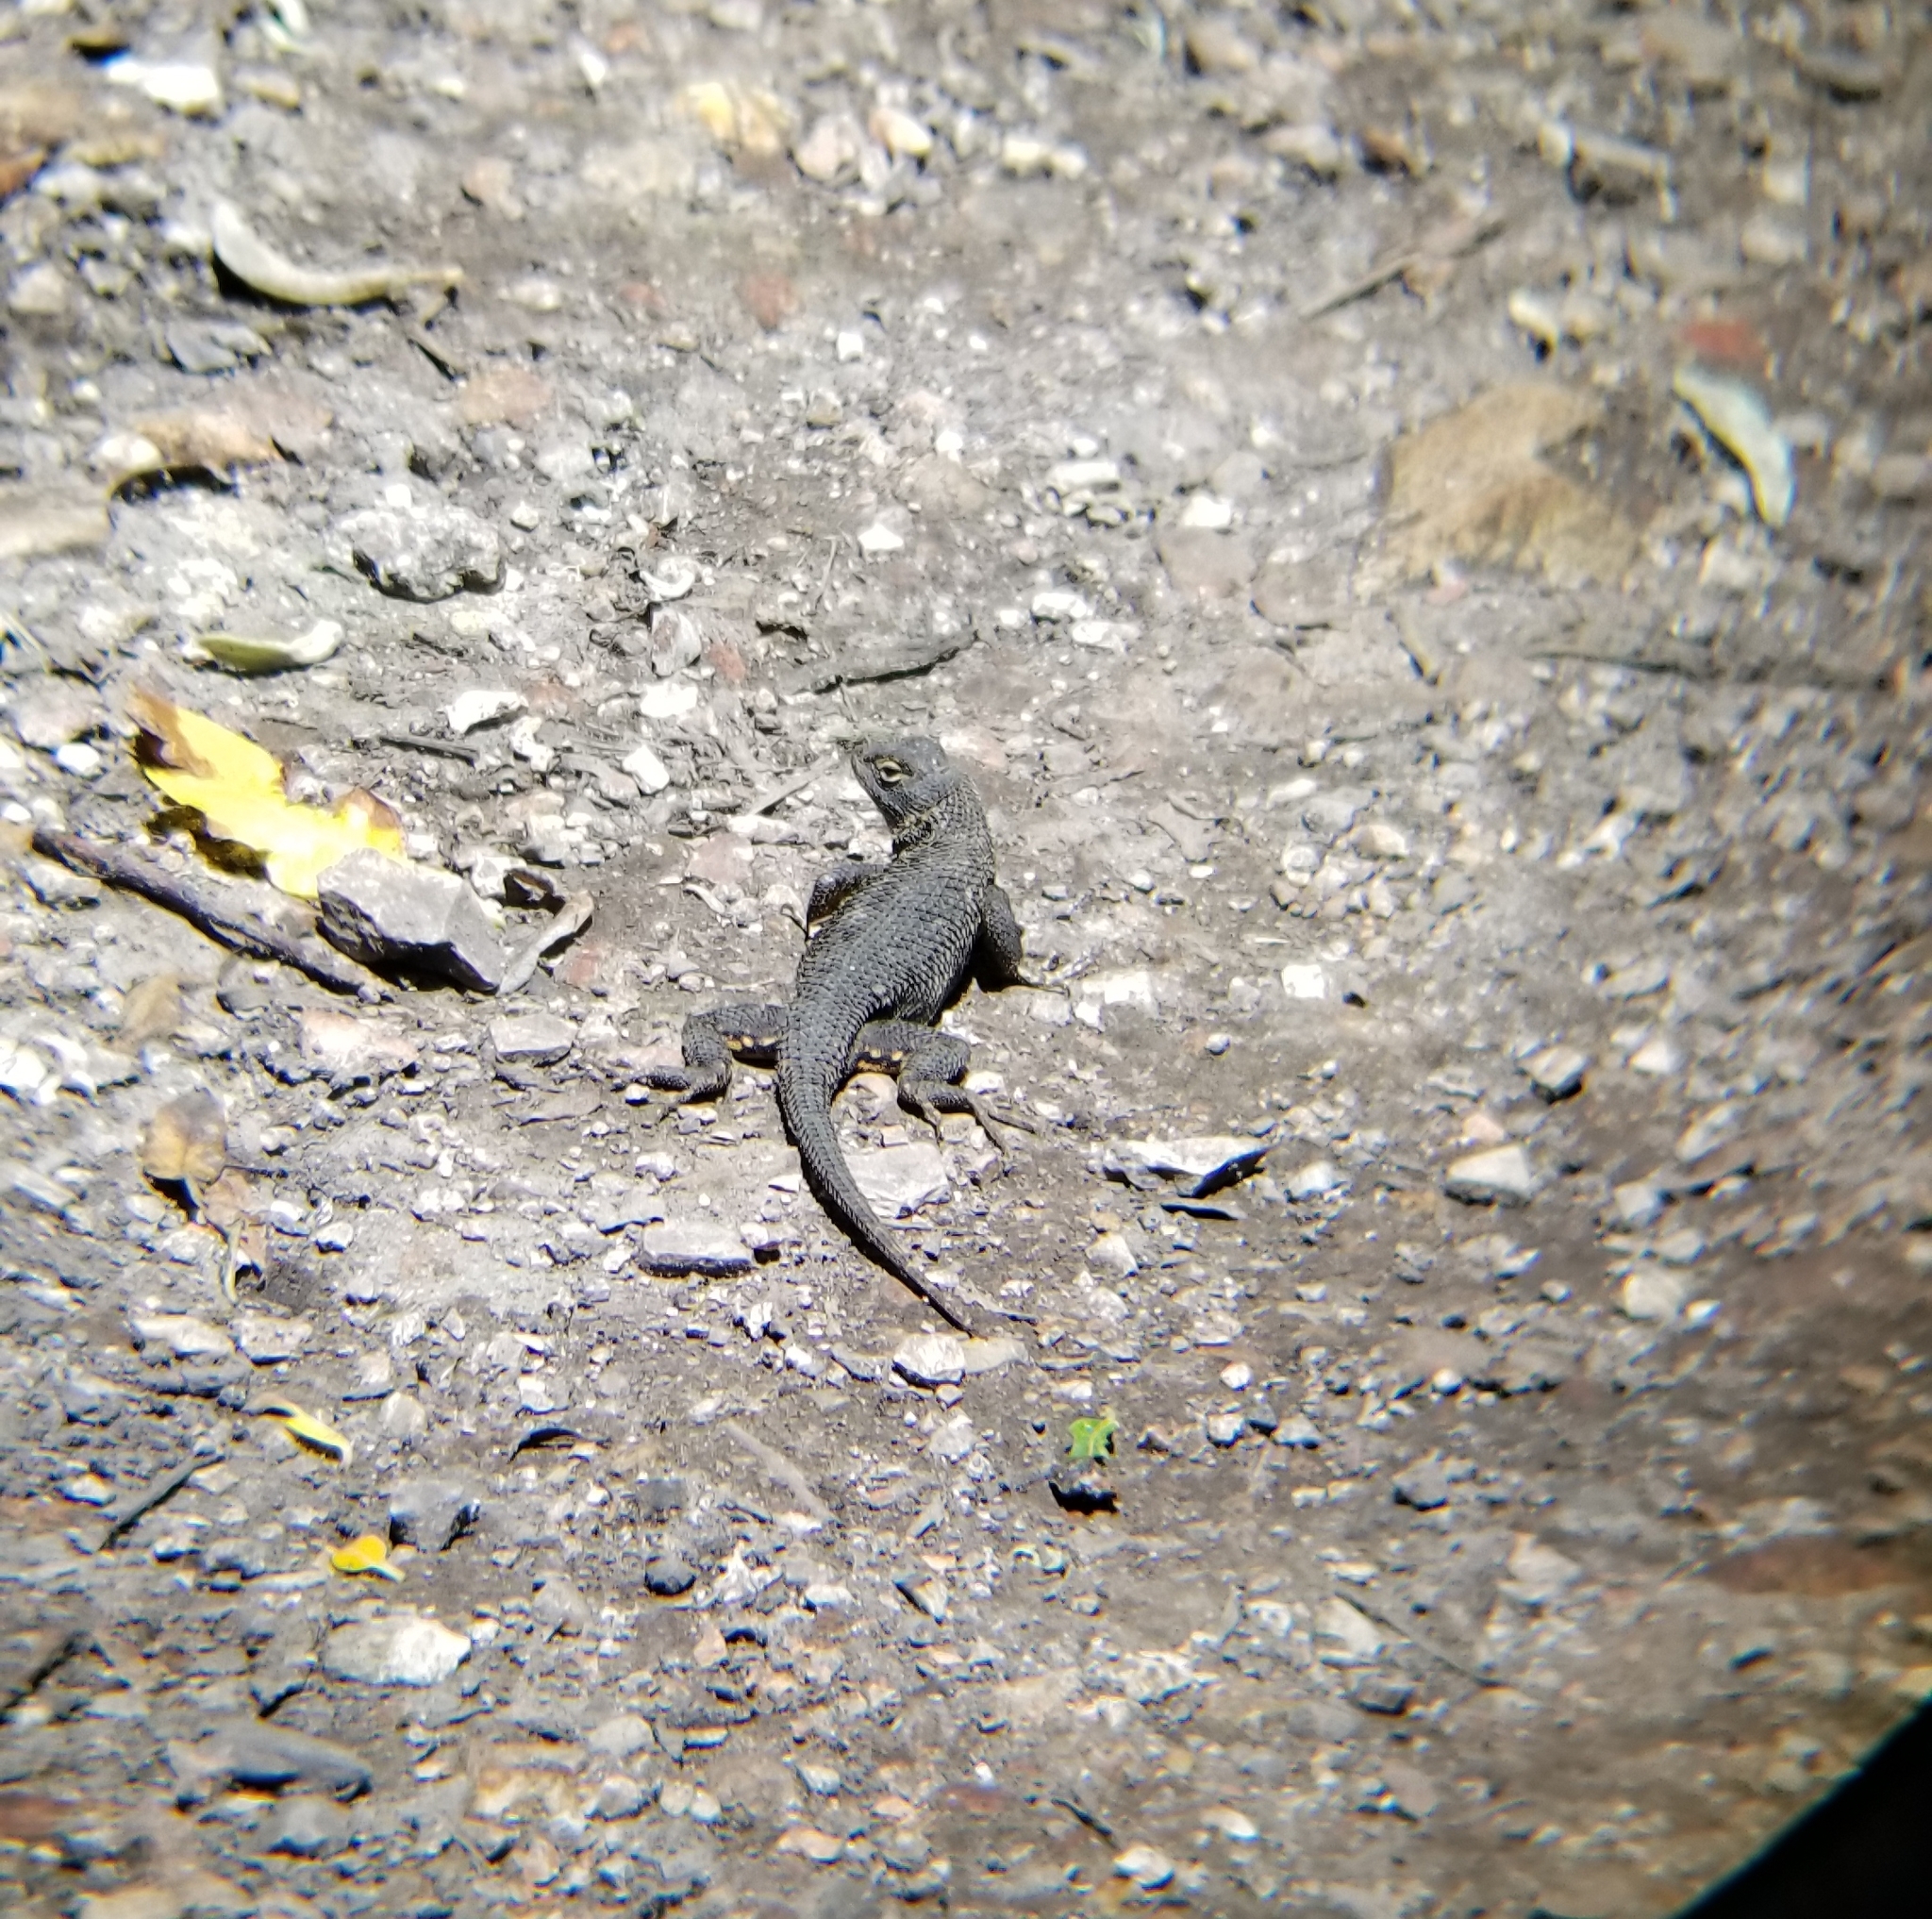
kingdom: Animalia
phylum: Chordata
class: Squamata
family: Phrynosomatidae
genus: Sceloporus
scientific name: Sceloporus occidentalis
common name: Western fence lizard
